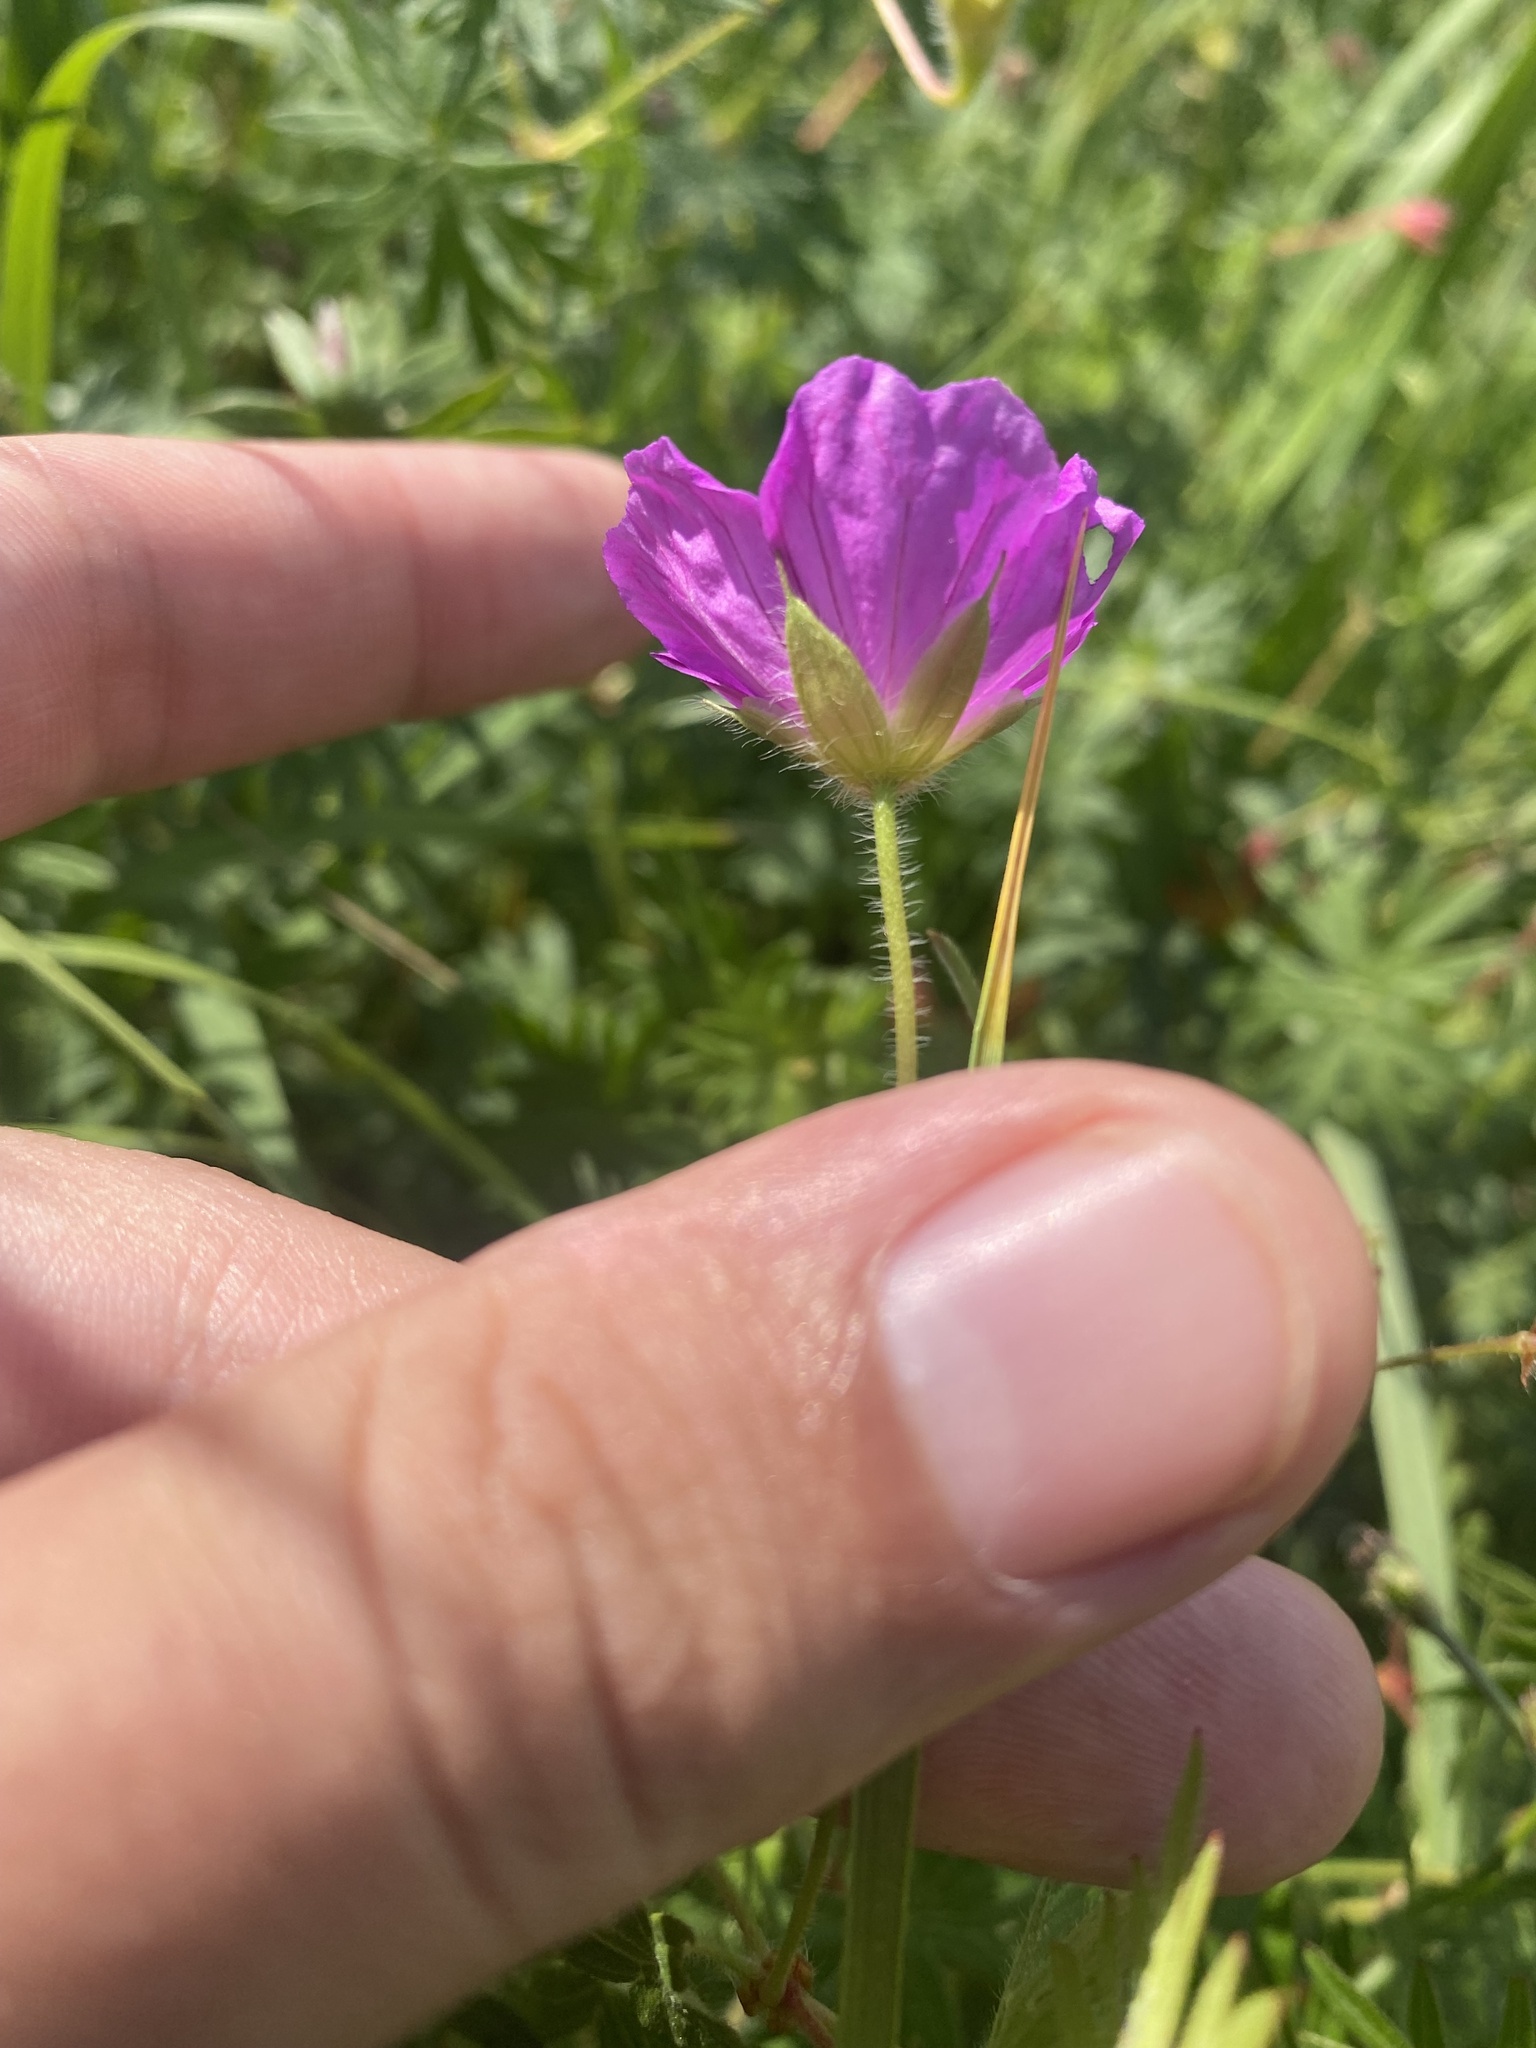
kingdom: Plantae
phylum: Tracheophyta
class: Magnoliopsida
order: Geraniales
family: Geraniaceae
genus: Geranium
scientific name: Geranium sanguineum
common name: Bloody crane's-bill
